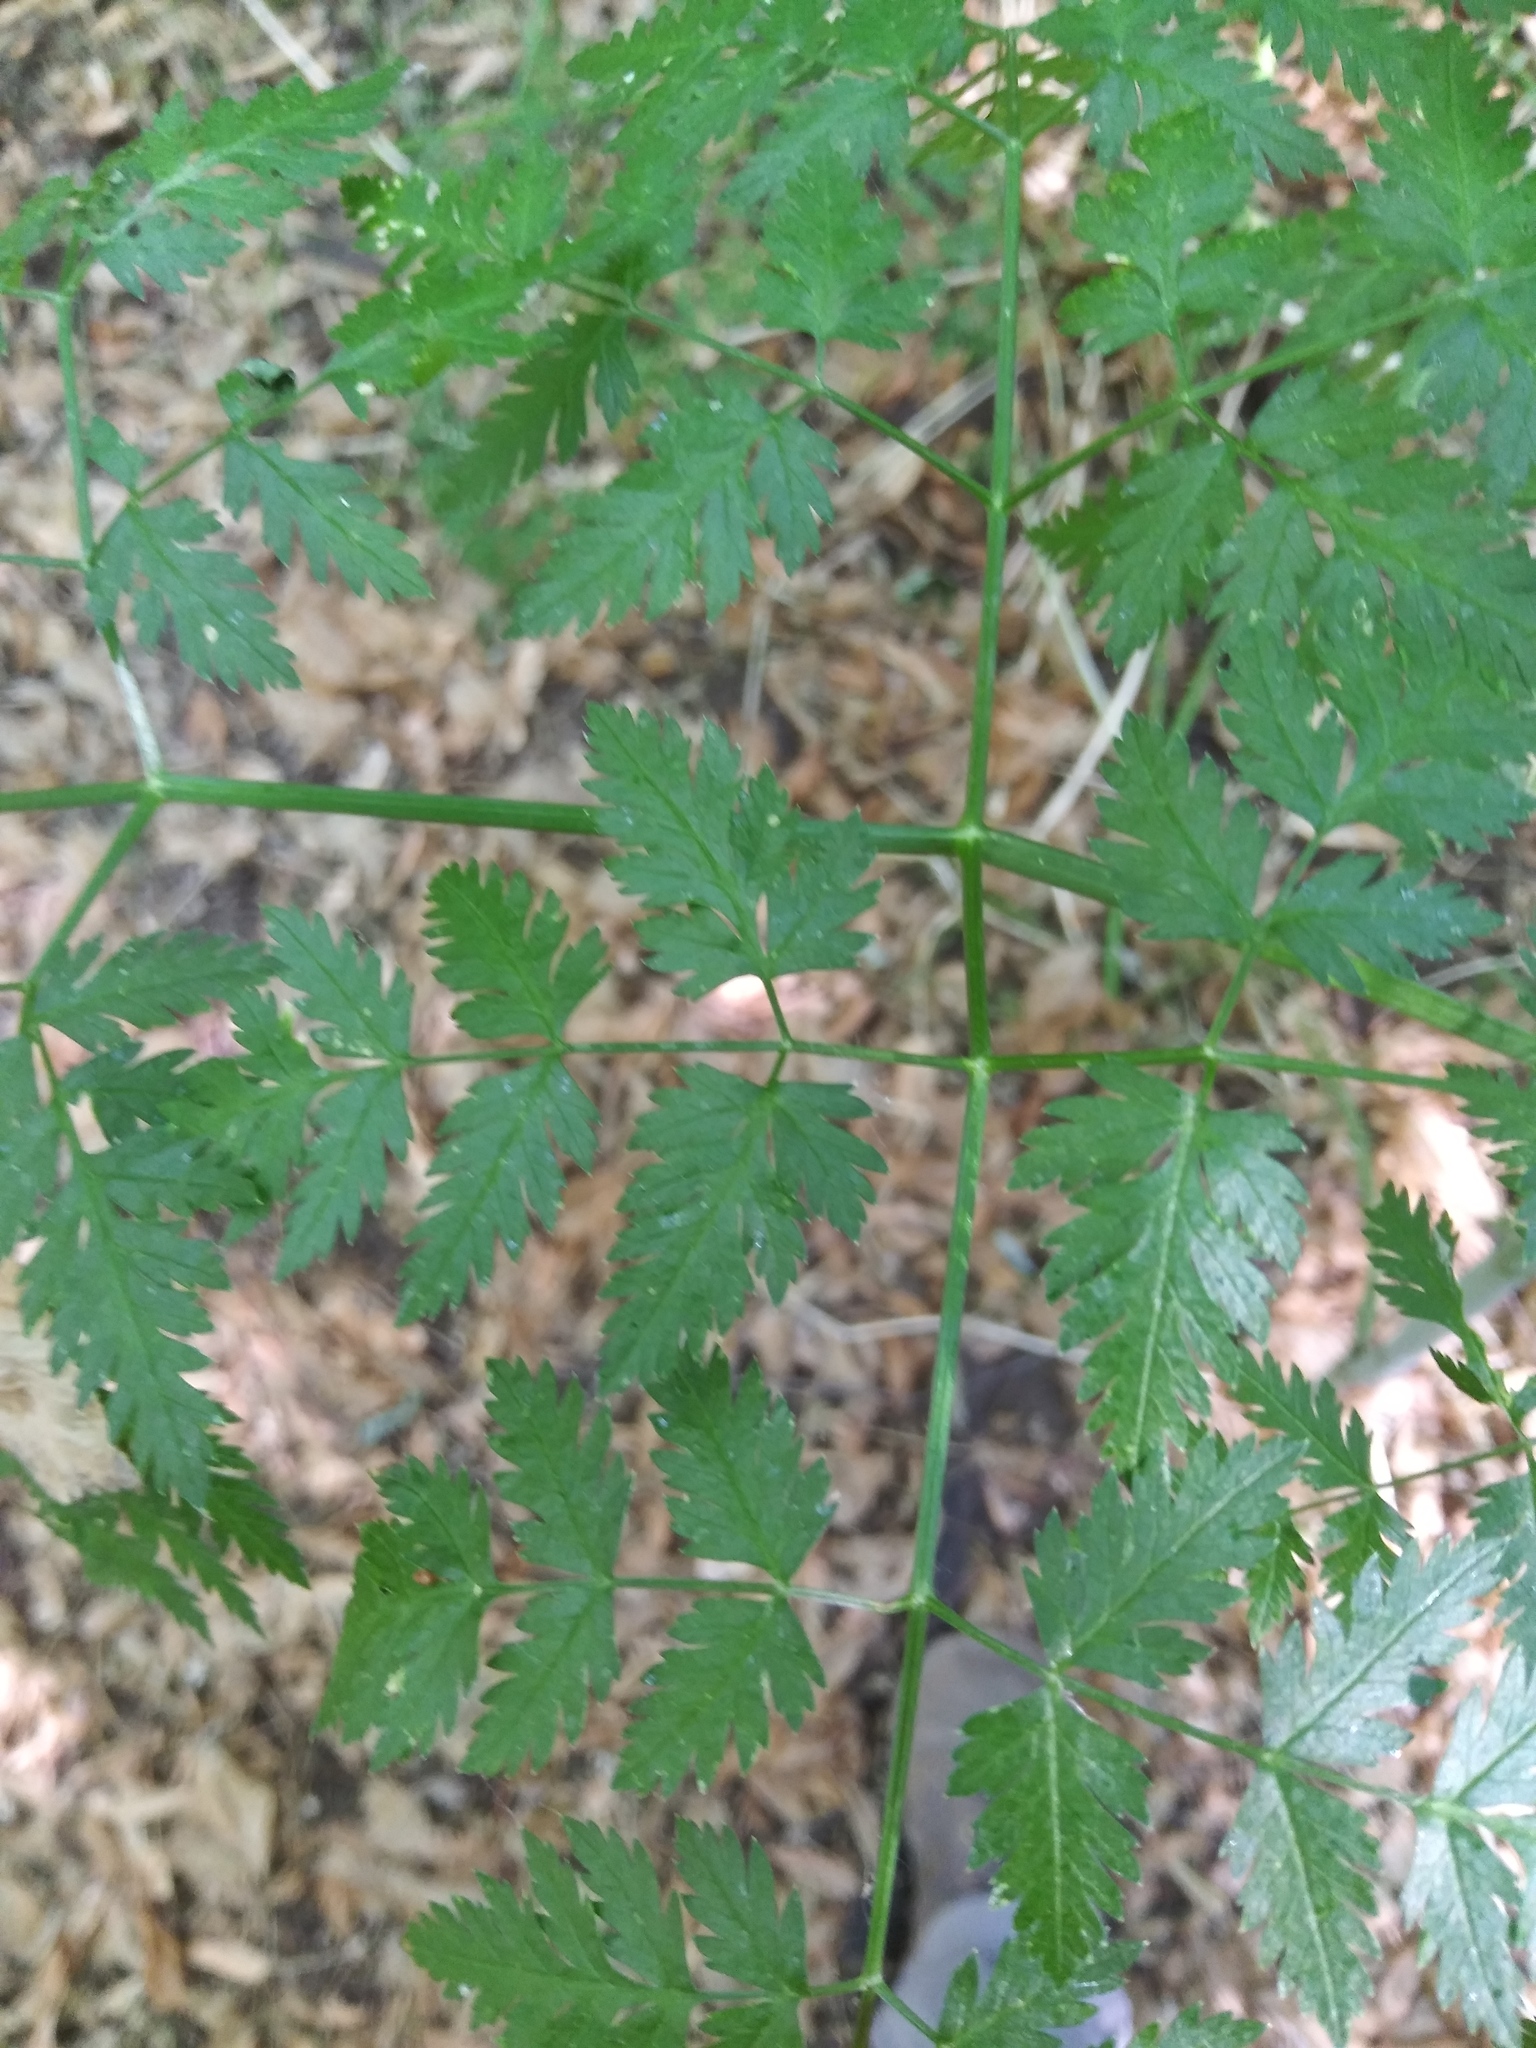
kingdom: Plantae
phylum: Tracheophyta
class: Magnoliopsida
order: Apiales
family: Apiaceae
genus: Conium
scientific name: Conium maculatum
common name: Hemlock
